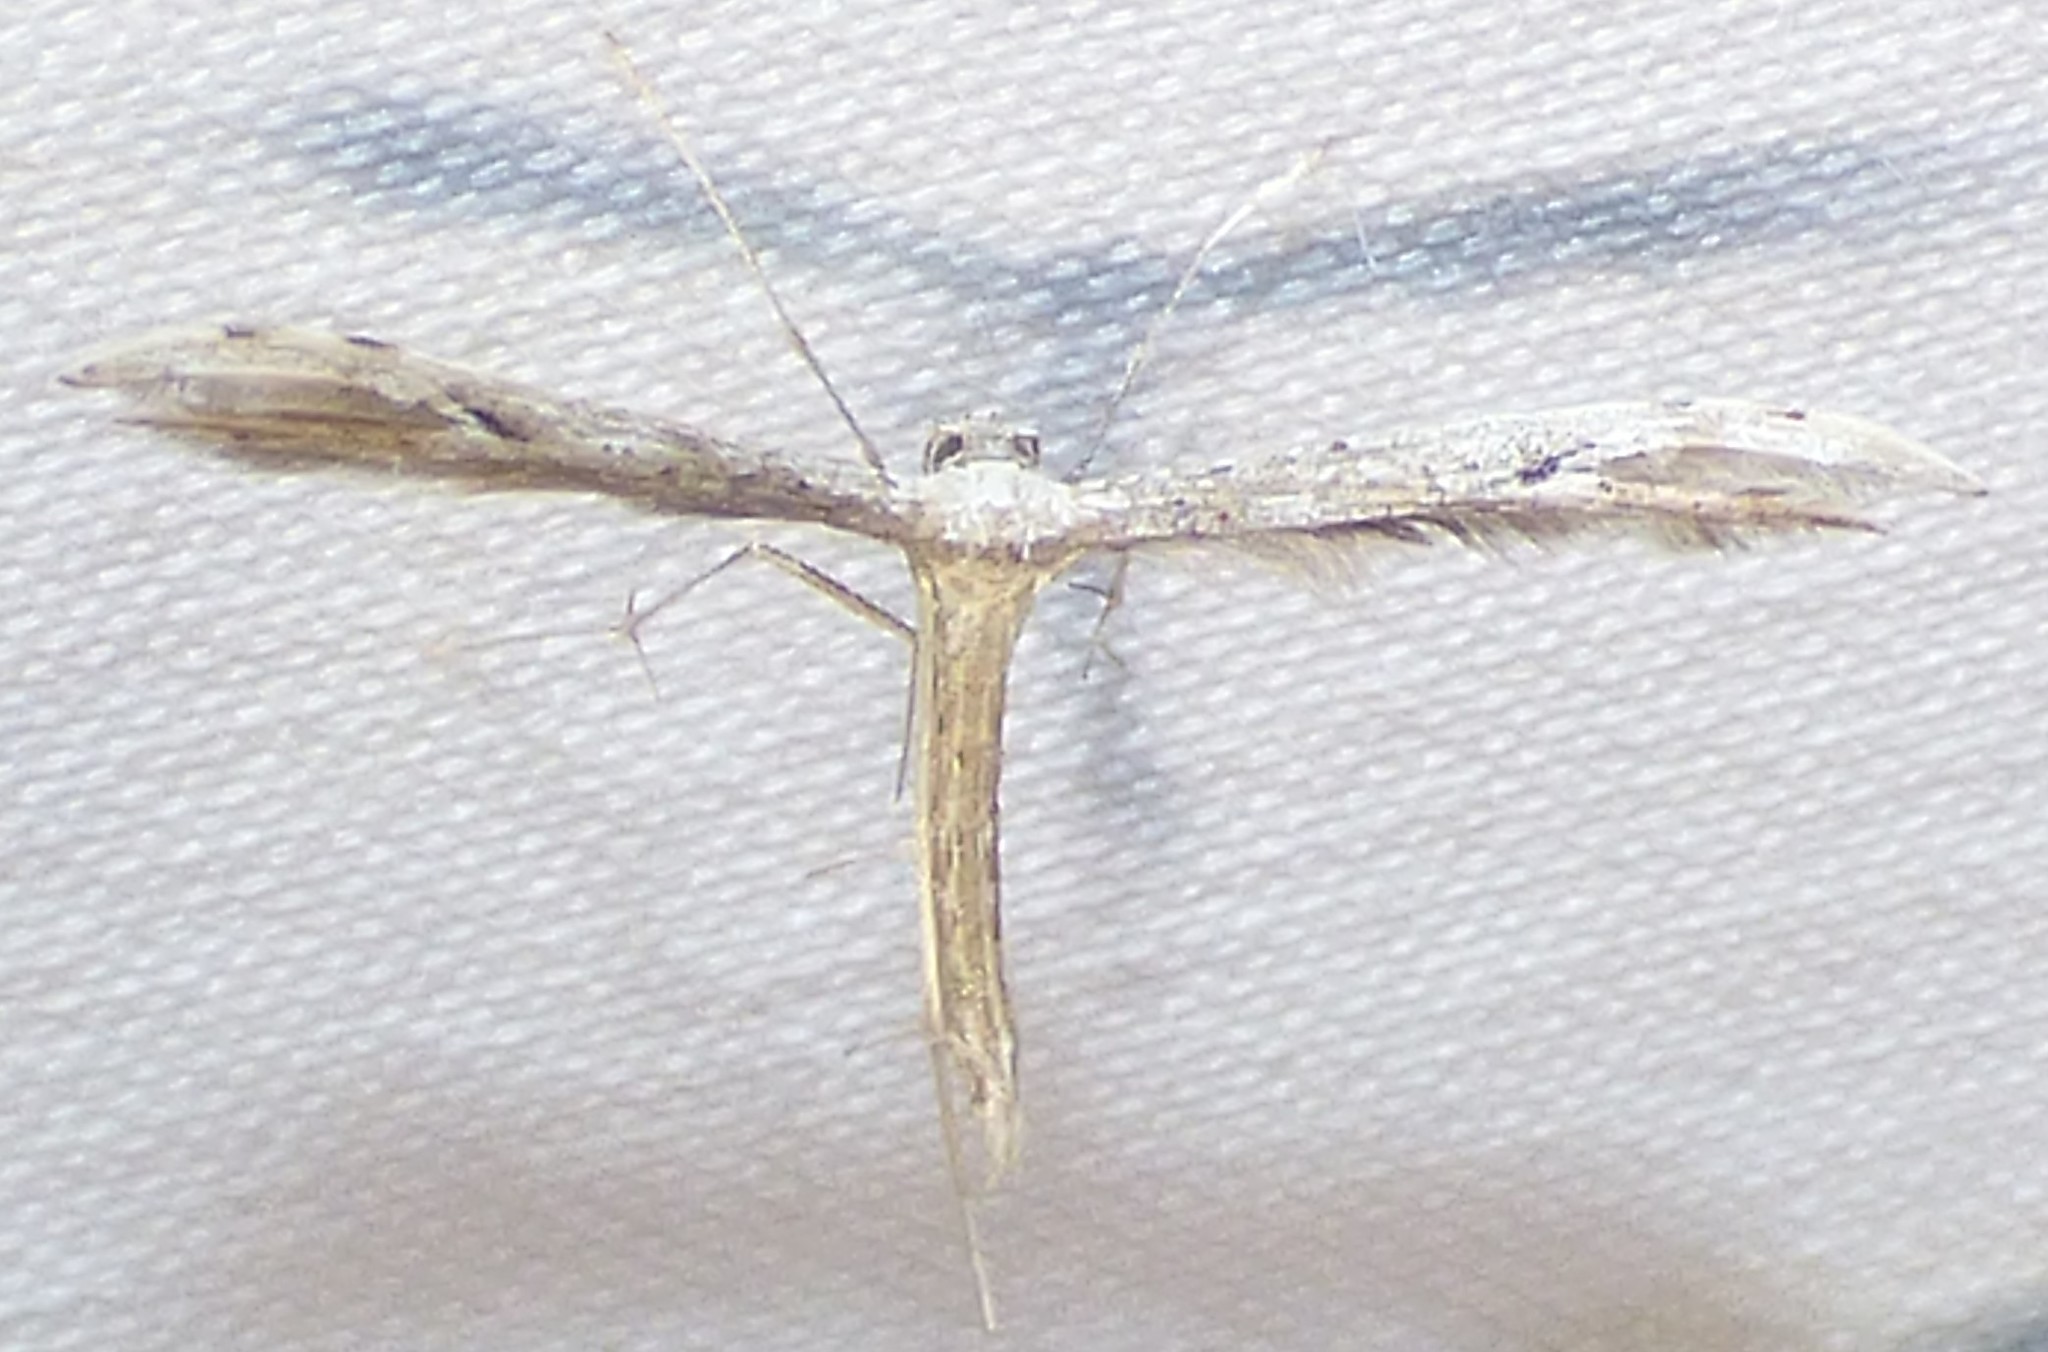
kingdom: Animalia
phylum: Arthropoda
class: Insecta
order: Lepidoptera
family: Pterophoridae
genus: Pselnophorus
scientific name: Pselnophorus belfragei
